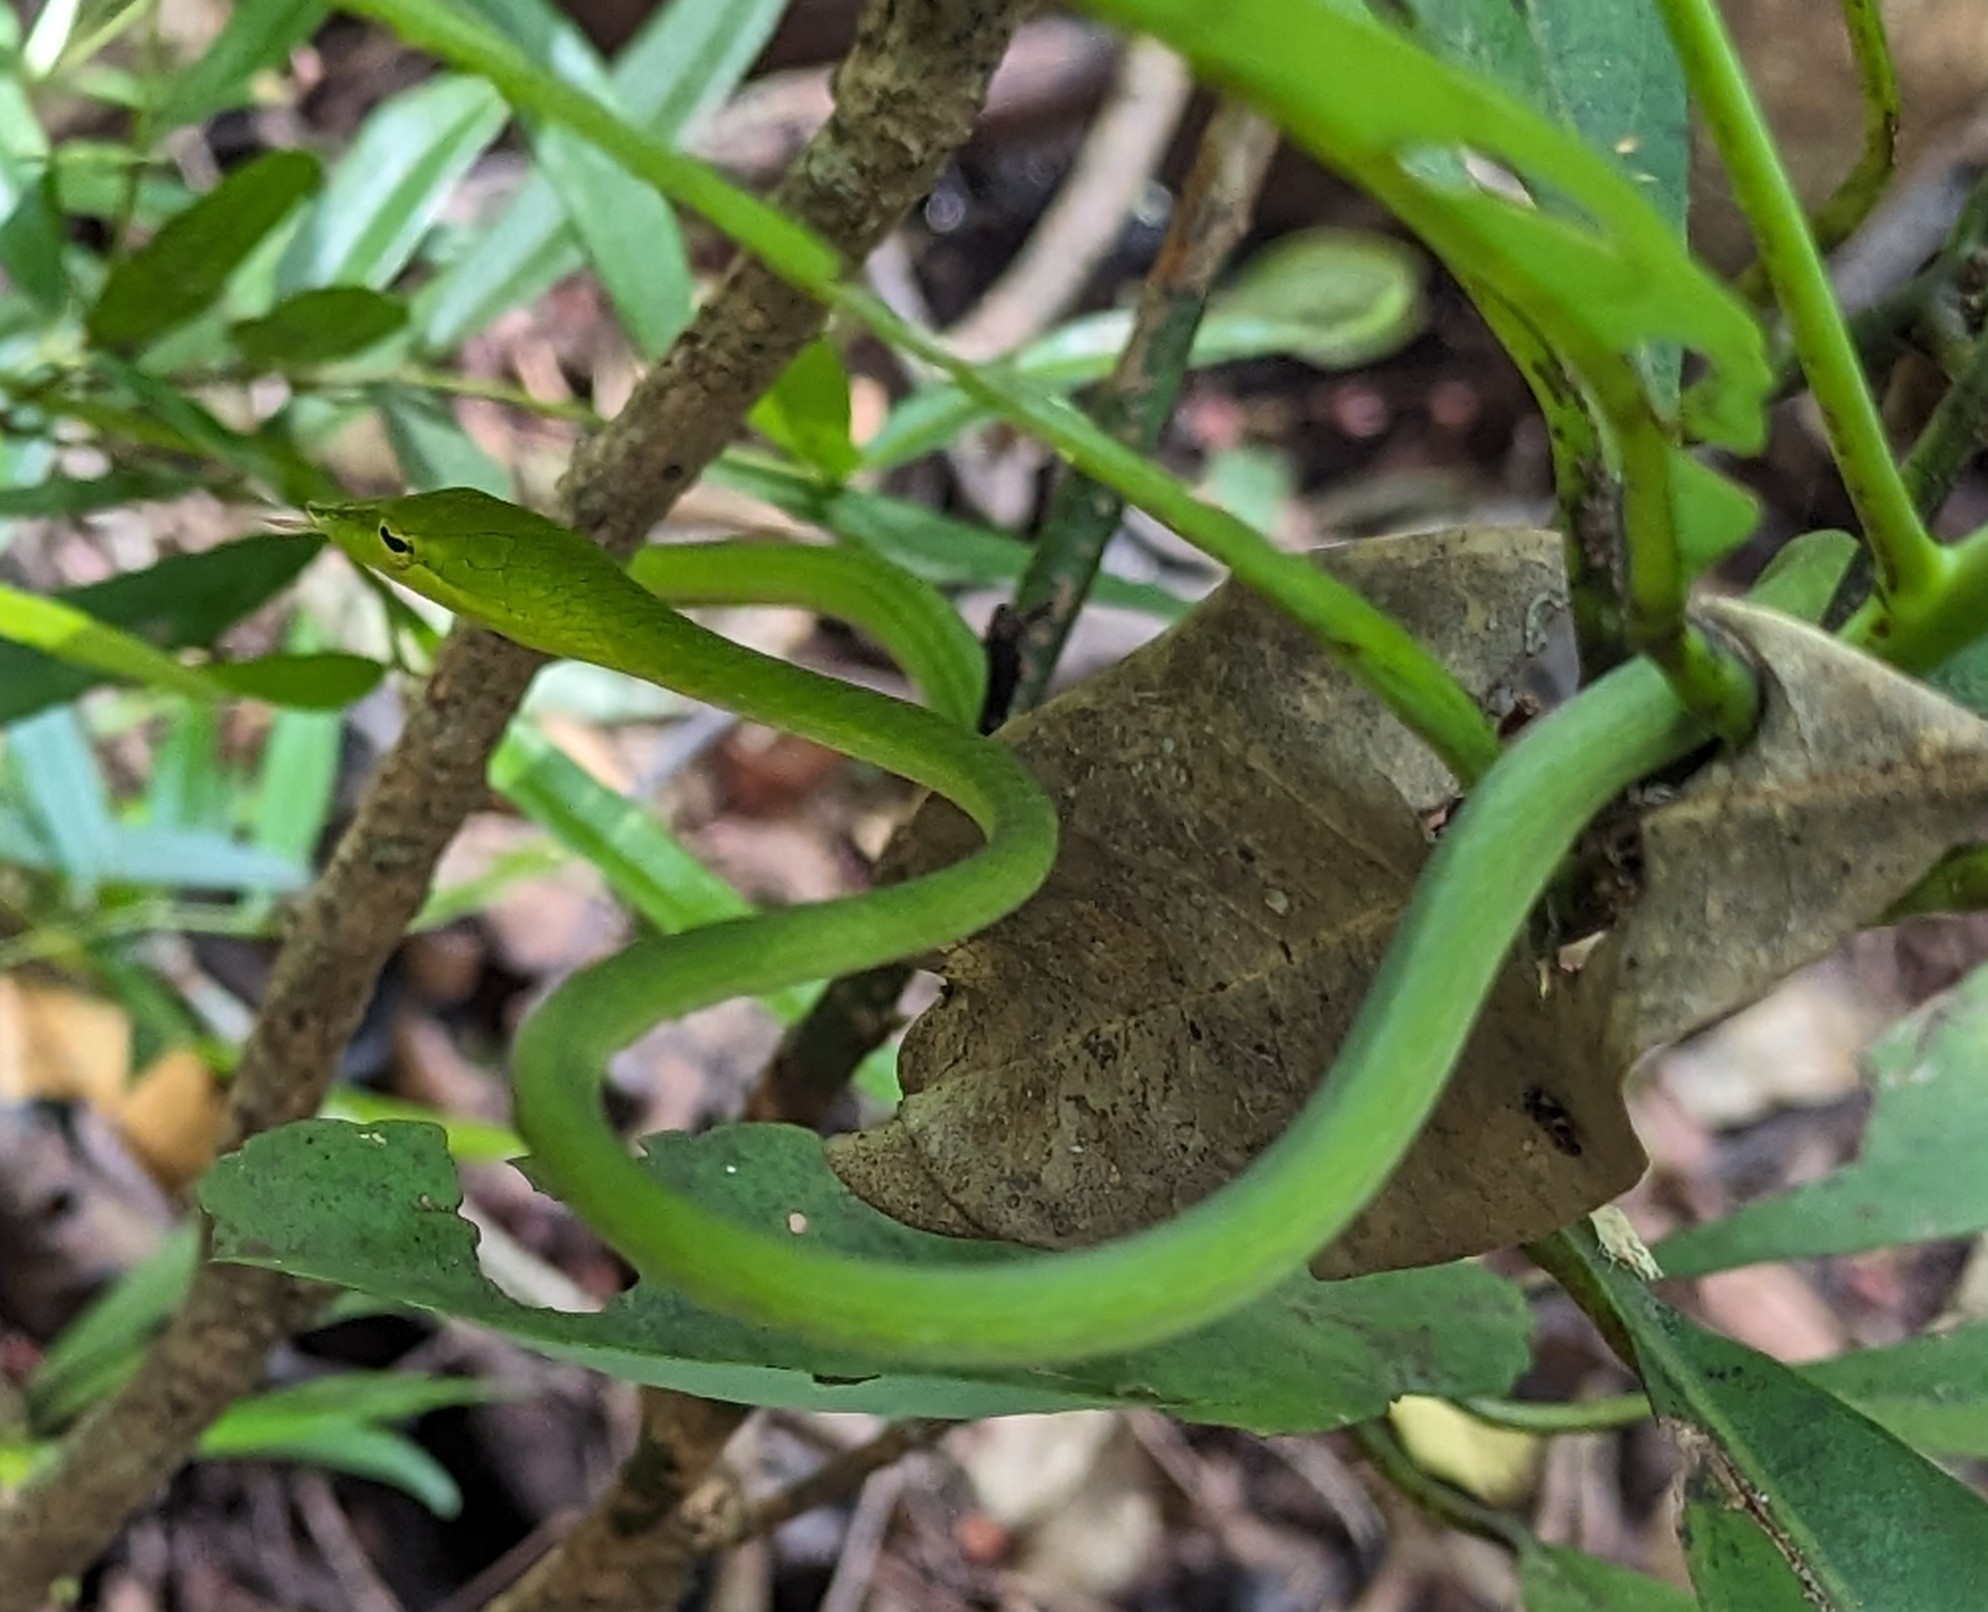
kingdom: Animalia
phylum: Chordata
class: Squamata
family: Colubridae
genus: Ahaetulla
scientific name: Ahaetulla malabarica
